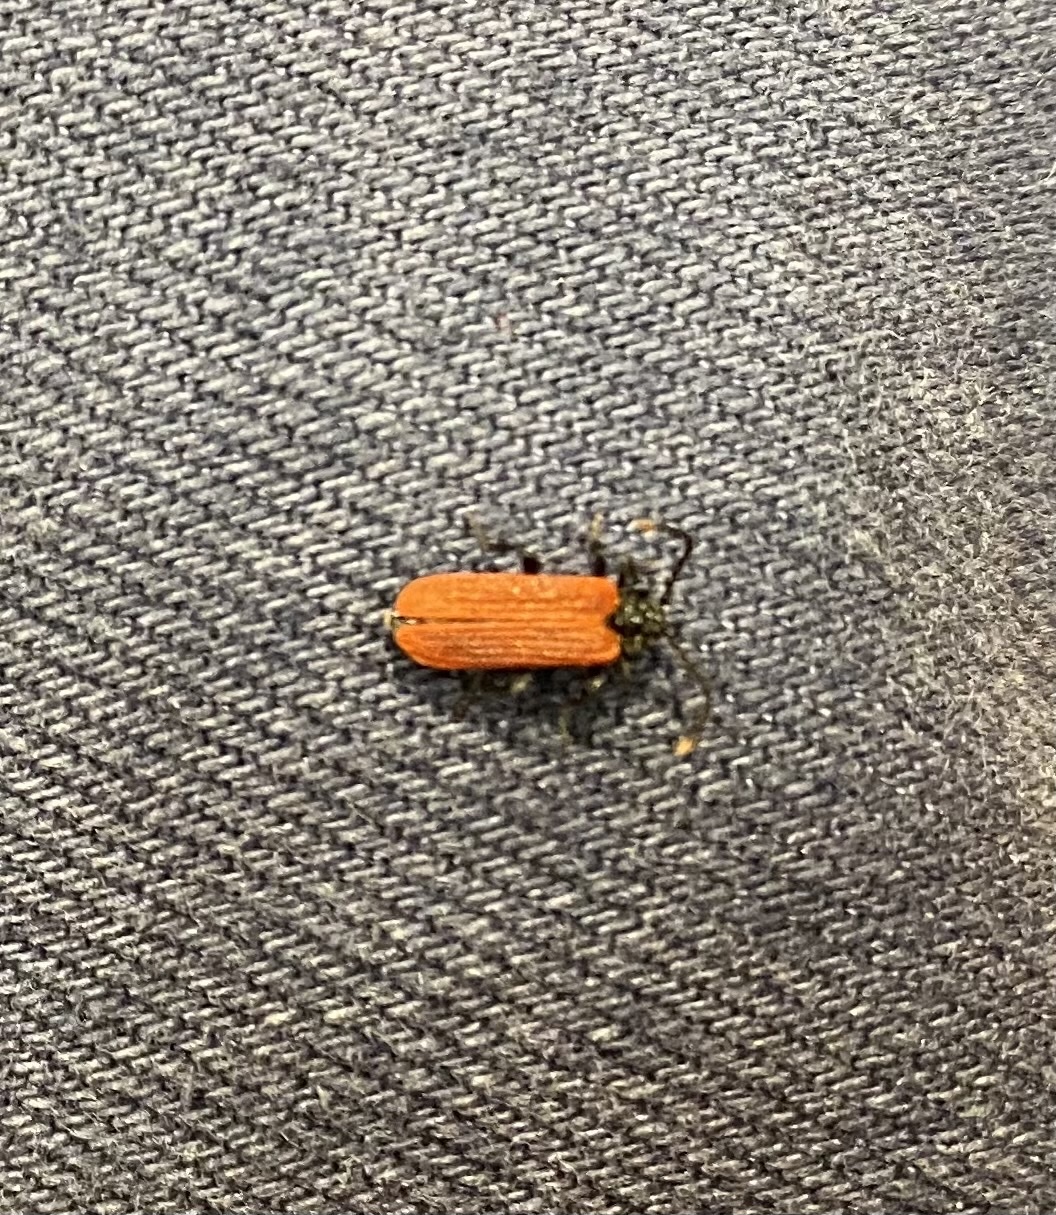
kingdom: Animalia
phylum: Arthropoda
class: Insecta
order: Coleoptera
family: Lycidae
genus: Platycis
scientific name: Platycis minutus
